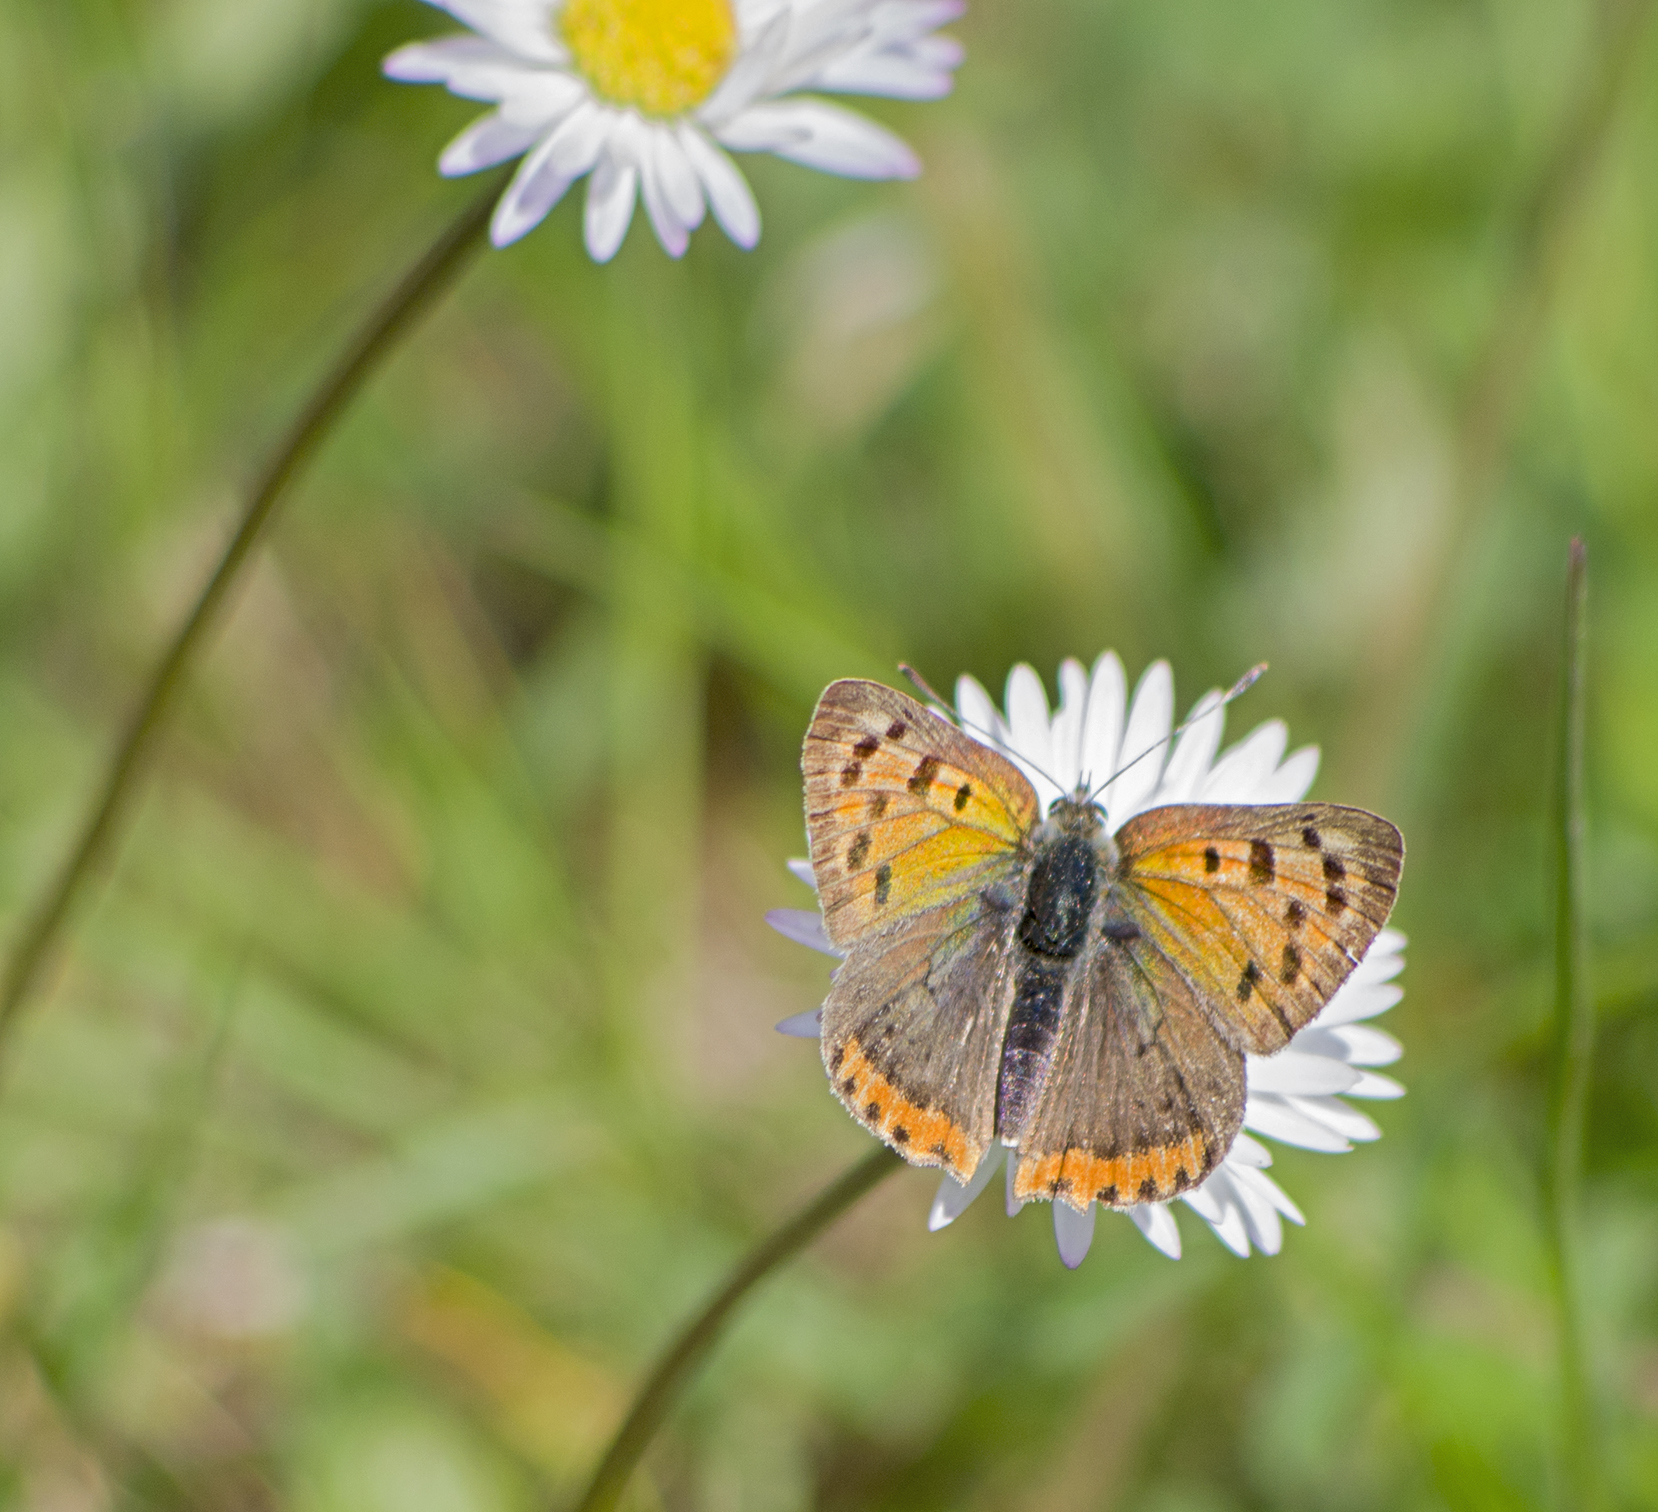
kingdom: Animalia
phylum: Arthropoda
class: Insecta
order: Lepidoptera
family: Lycaenidae
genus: Lycaena
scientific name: Lycaena phlaeas
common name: Small copper
